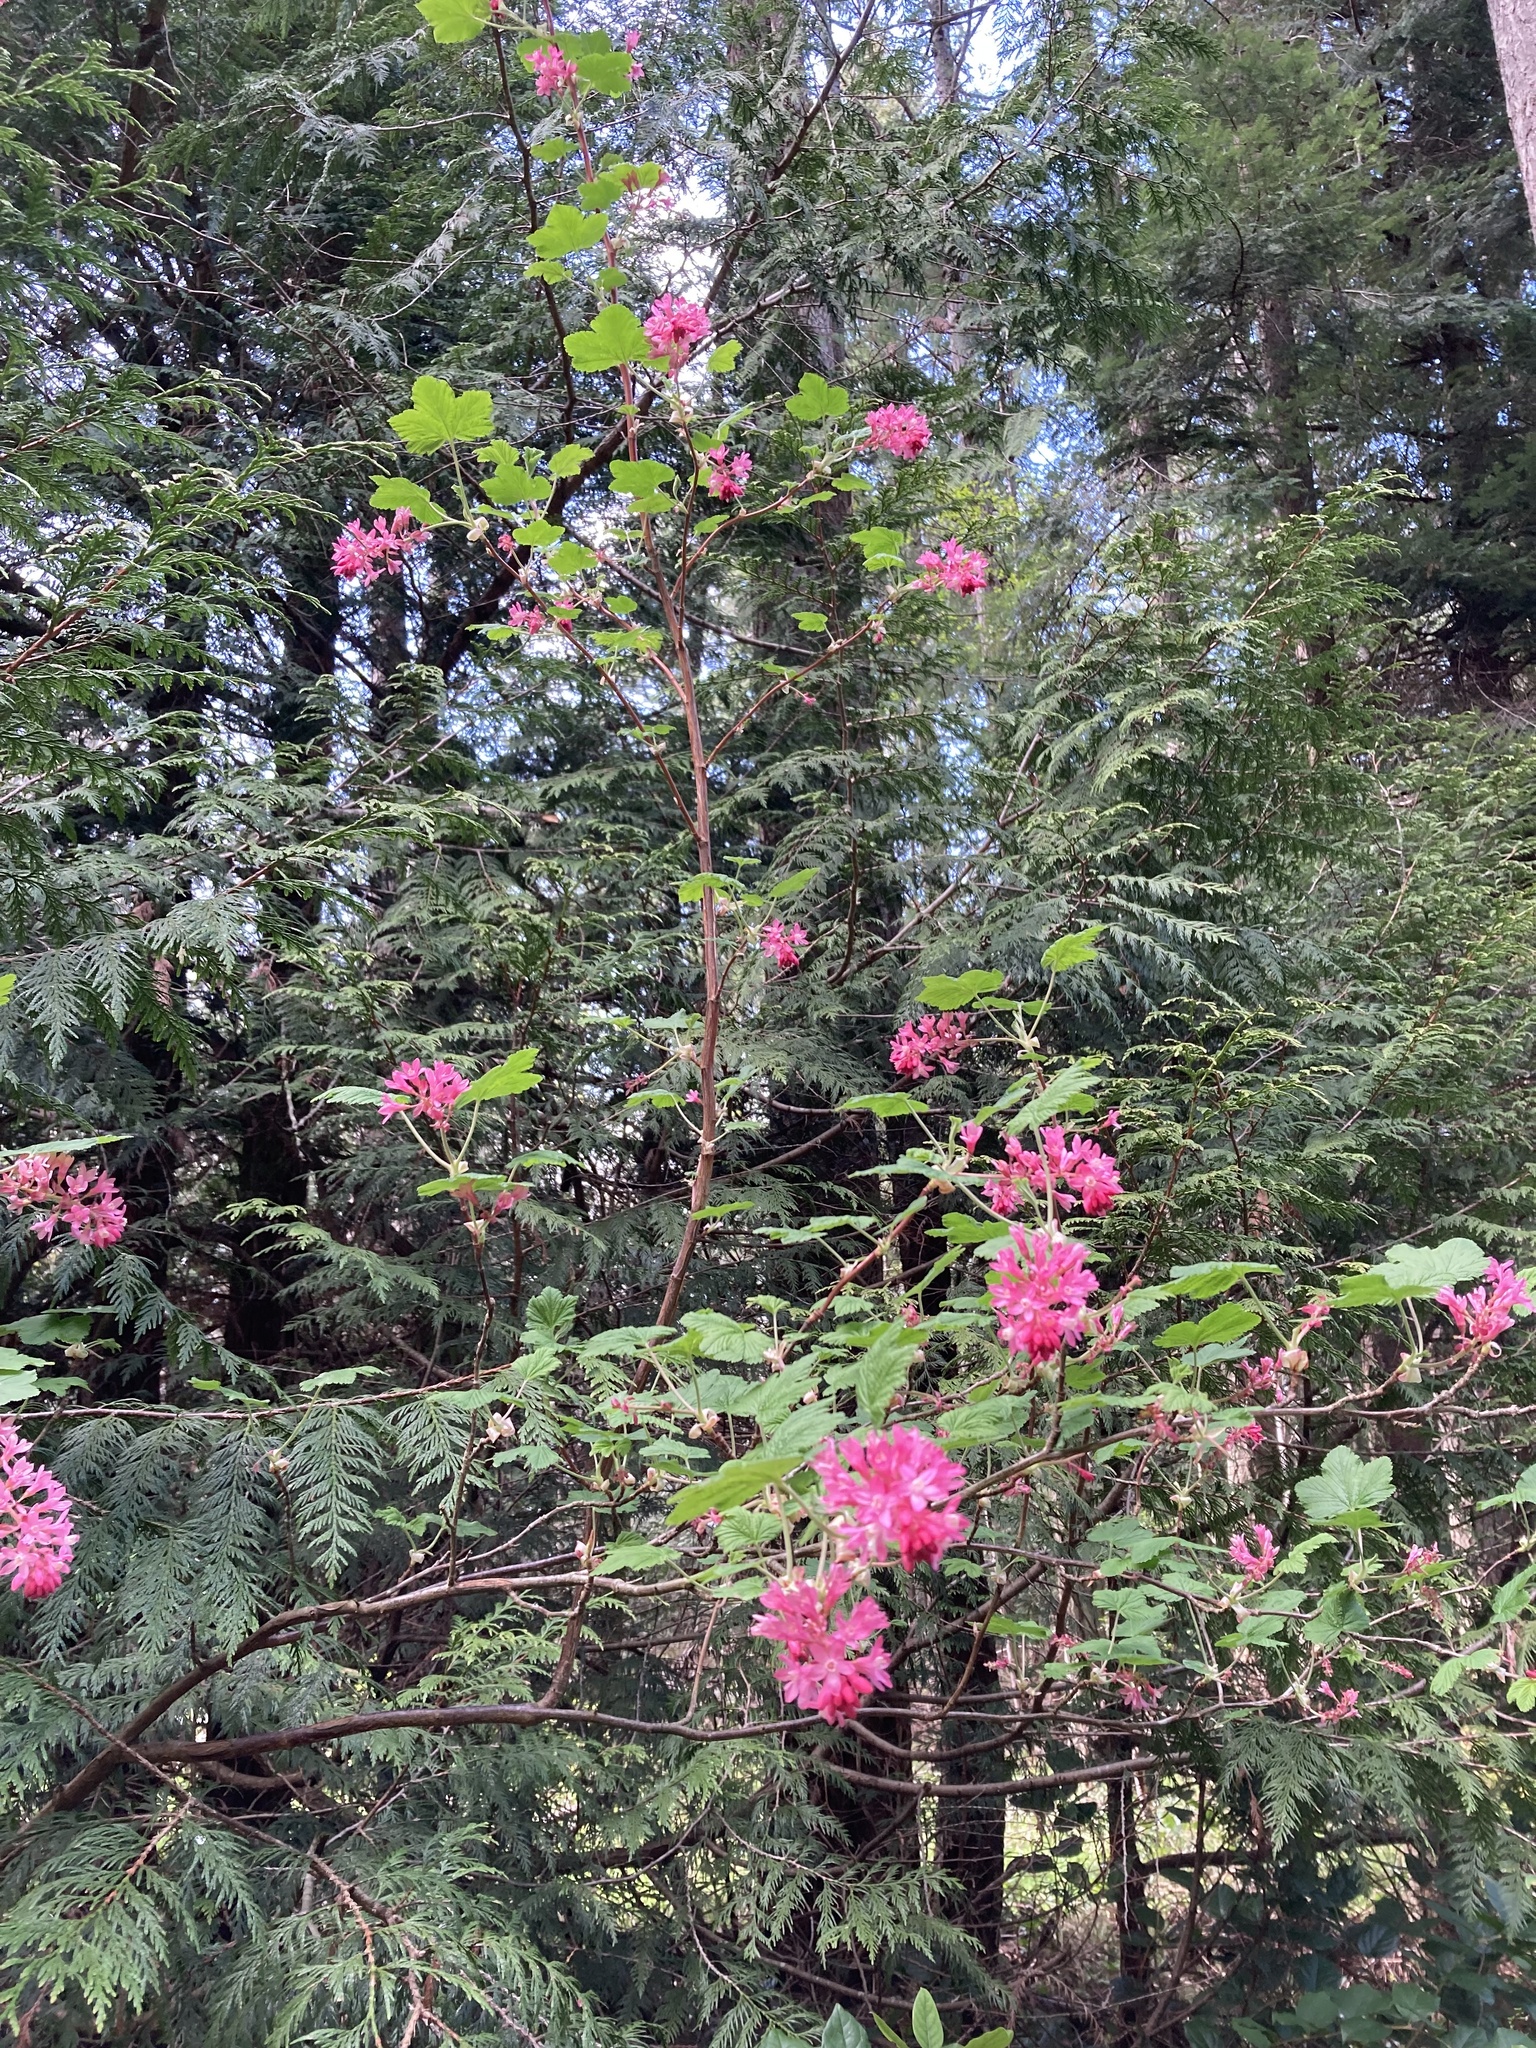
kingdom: Plantae
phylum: Tracheophyta
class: Magnoliopsida
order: Saxifragales
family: Grossulariaceae
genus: Ribes
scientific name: Ribes sanguineum
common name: Flowering currant
